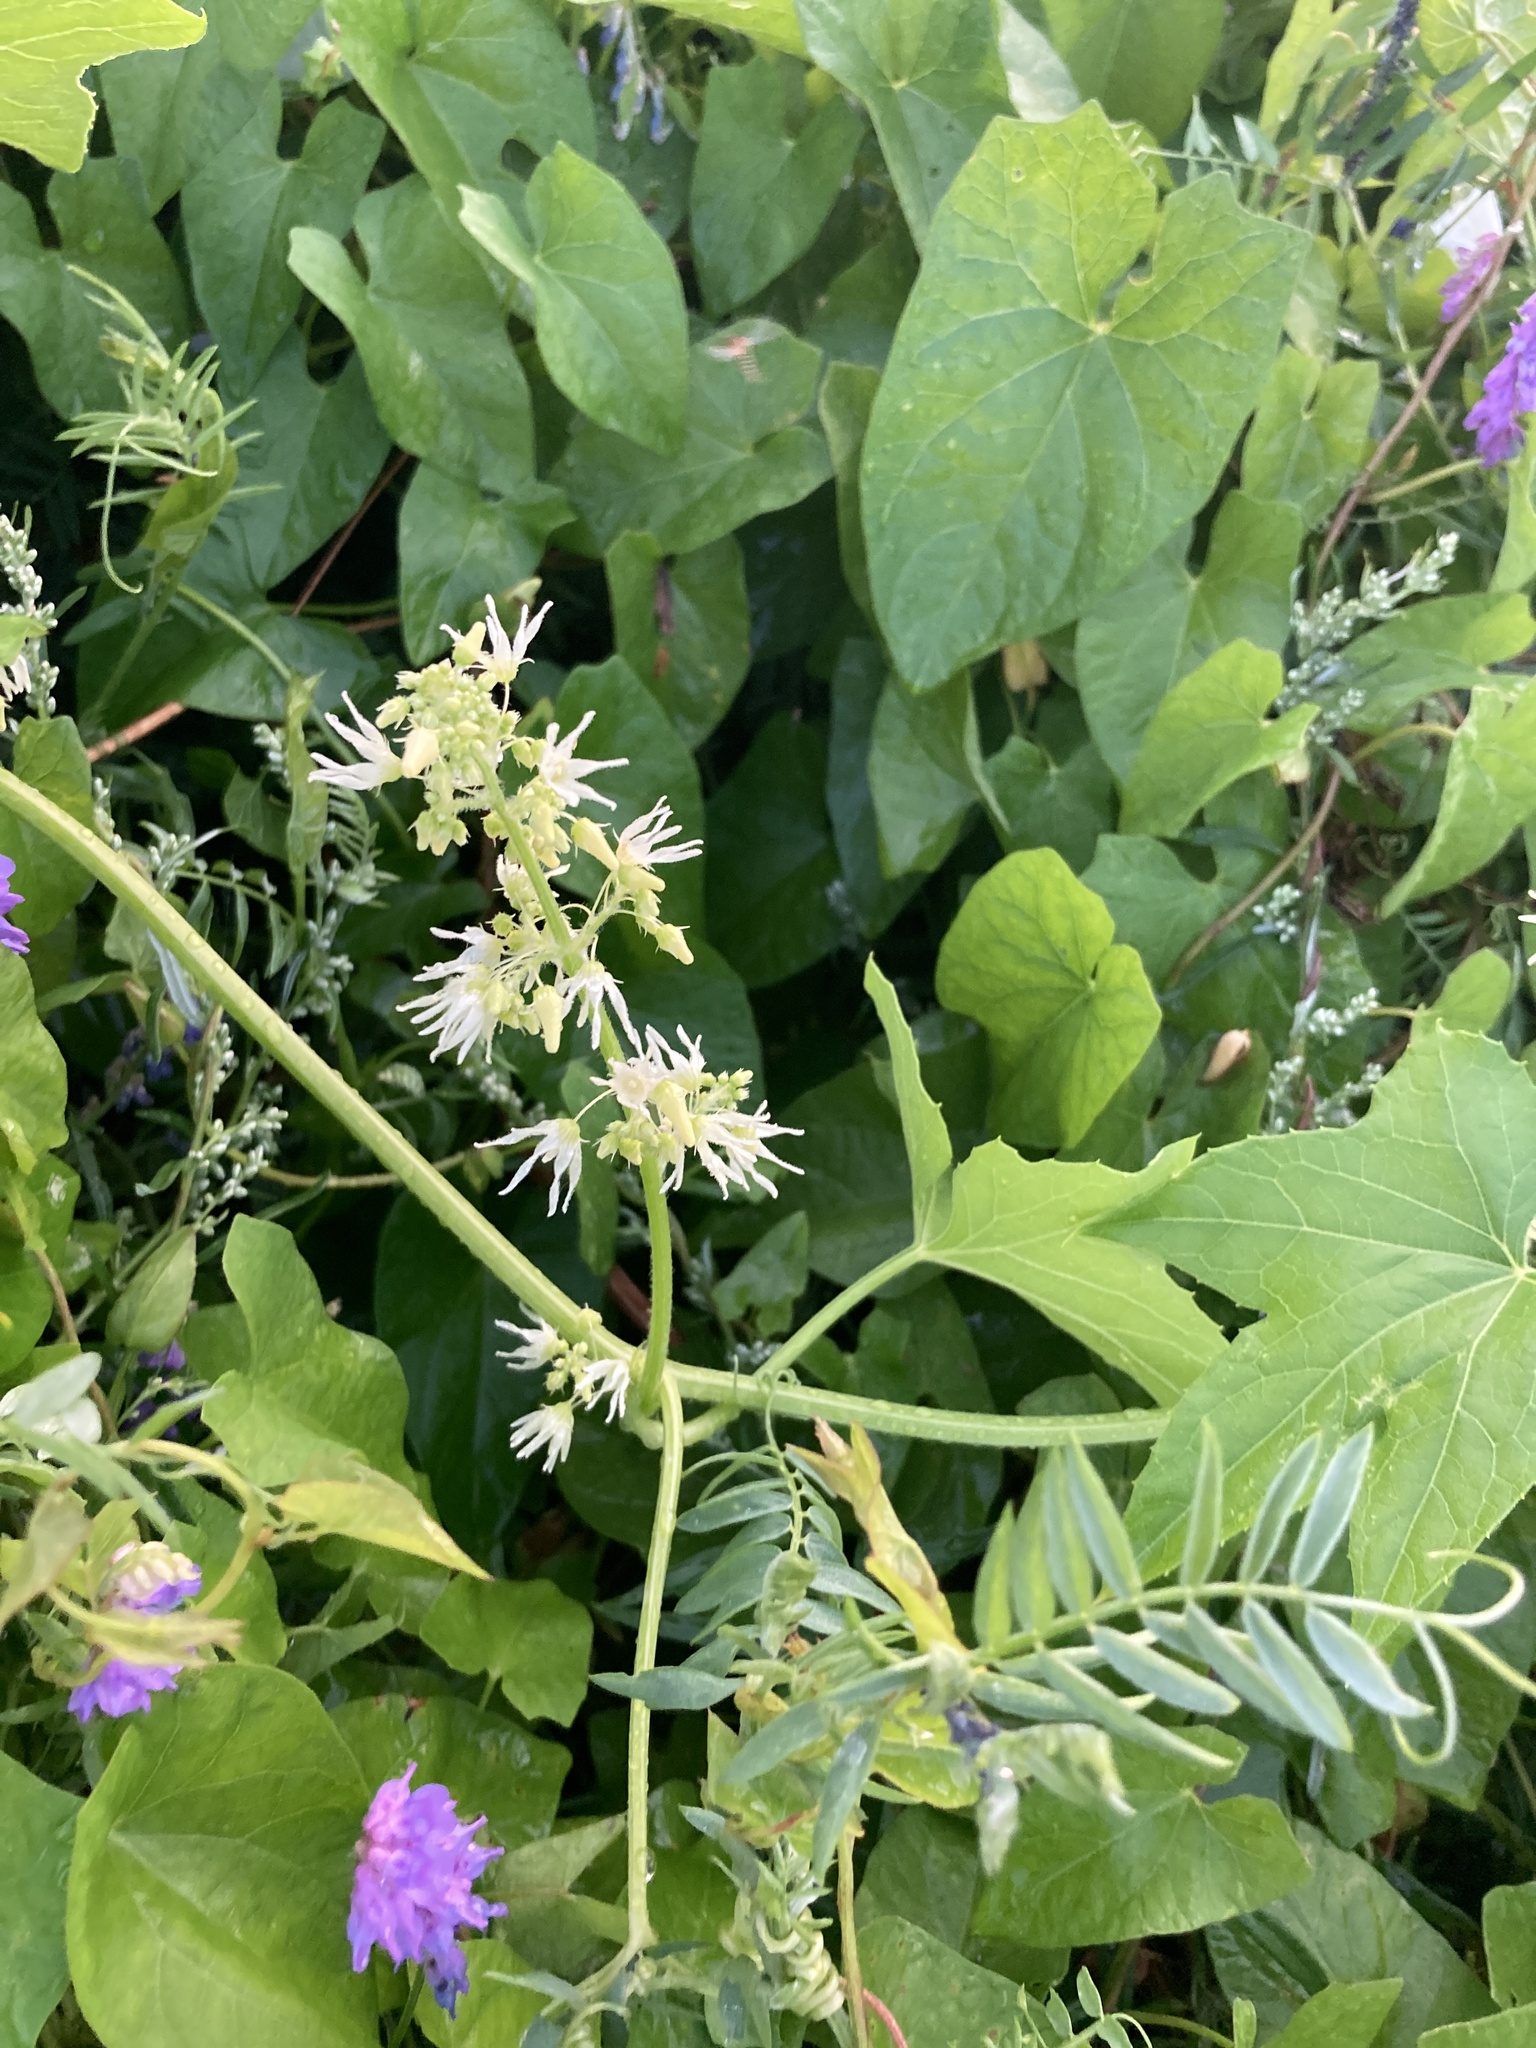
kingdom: Plantae
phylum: Tracheophyta
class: Magnoliopsida
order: Cucurbitales
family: Cucurbitaceae
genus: Echinocystis
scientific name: Echinocystis lobata
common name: Wild cucumber
